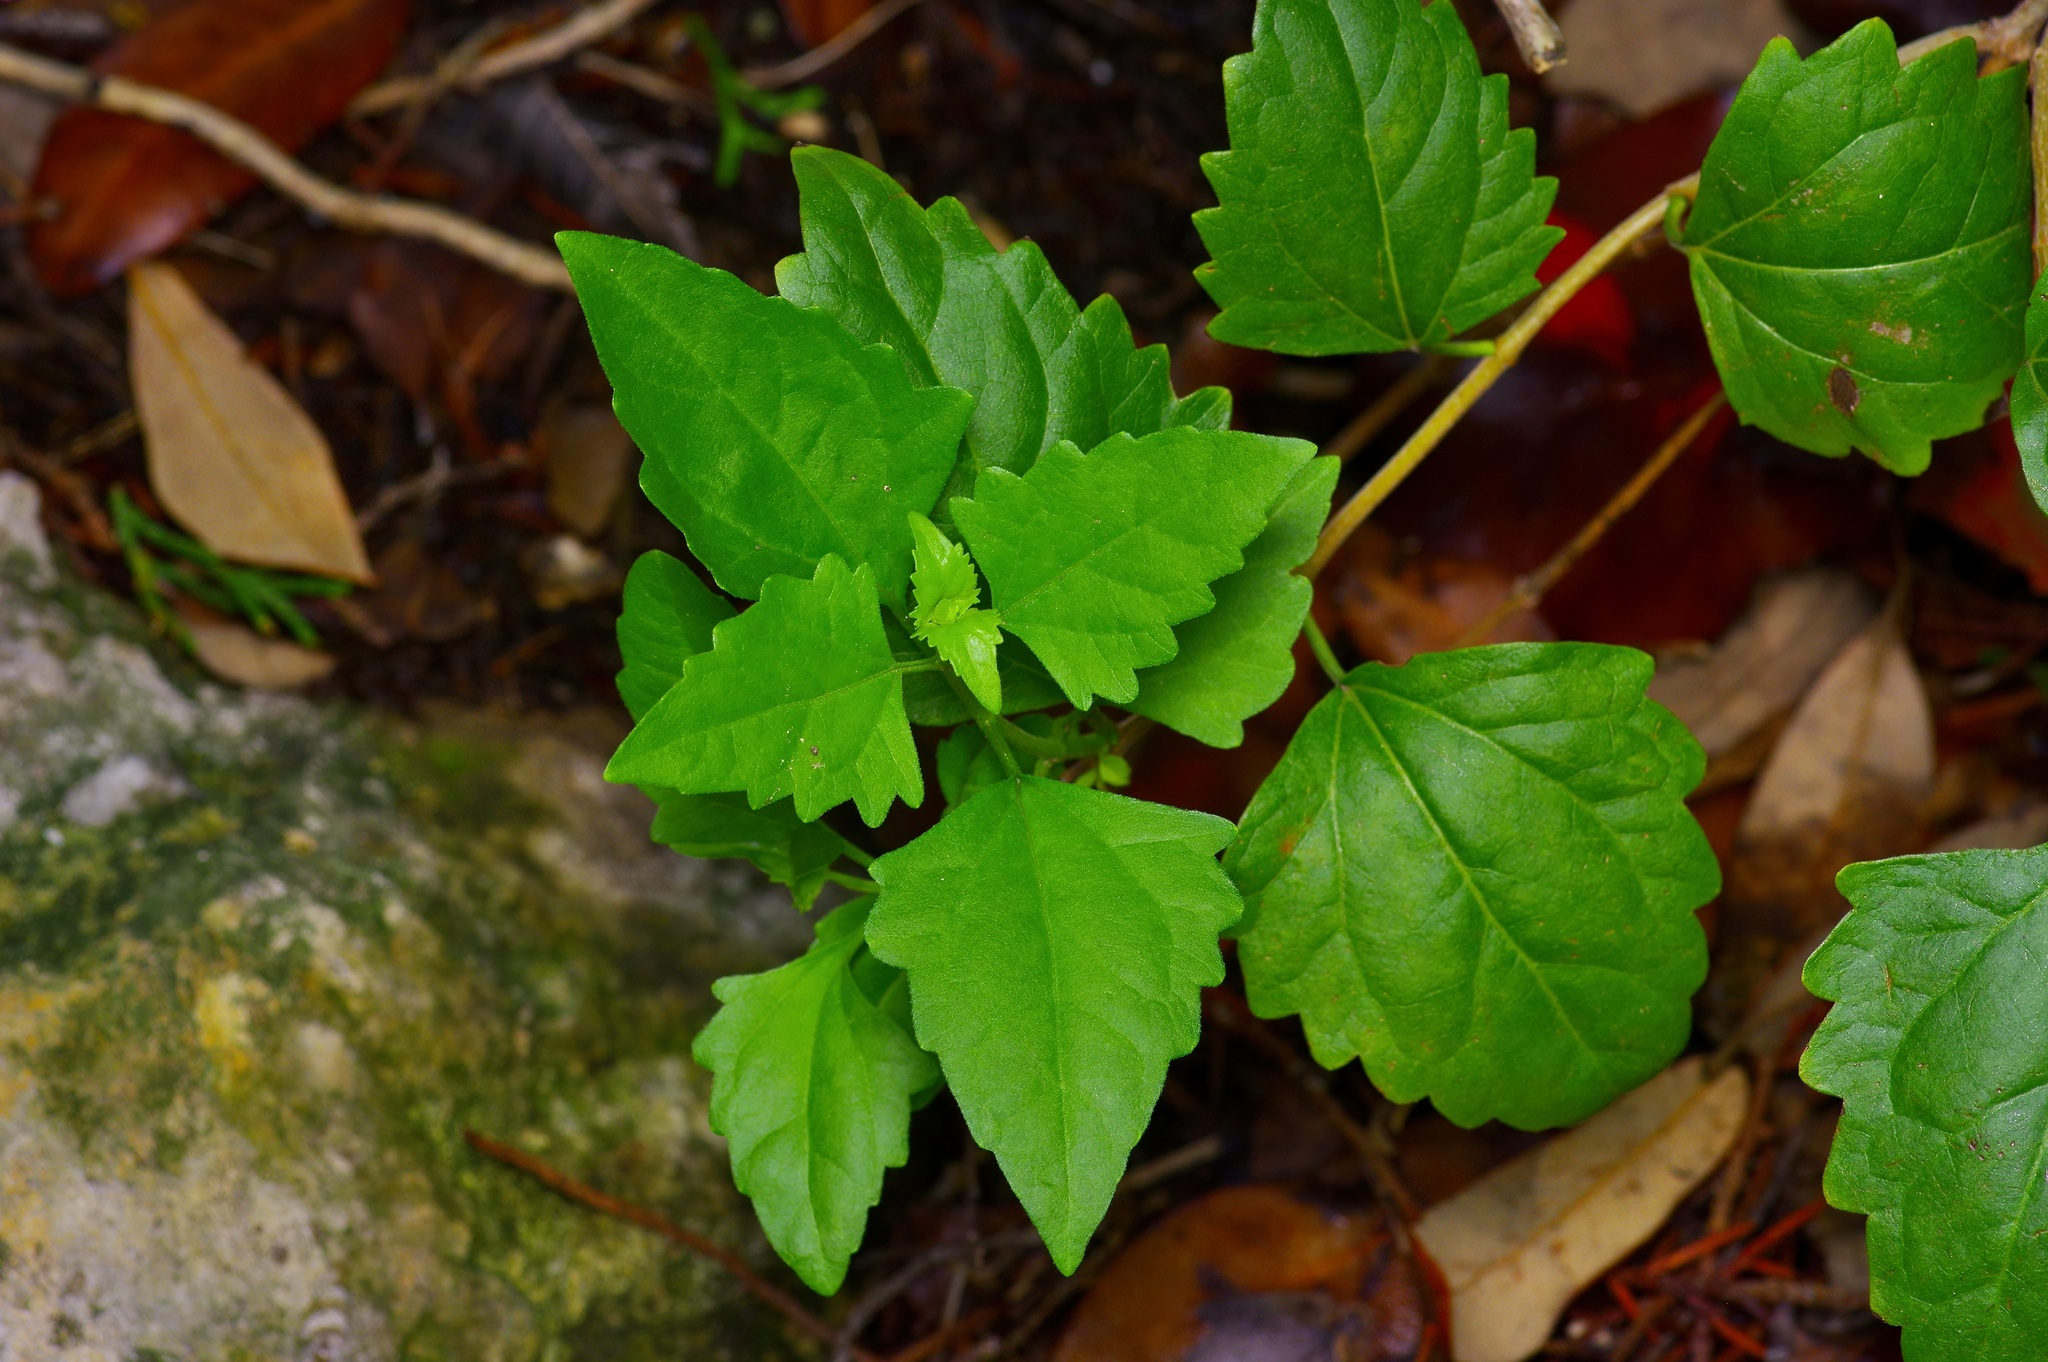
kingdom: Plantae
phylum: Tracheophyta
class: Magnoliopsida
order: Asterales
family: Asteraceae
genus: Ageratina
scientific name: Ageratina havanensis
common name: Havana snakeroot
